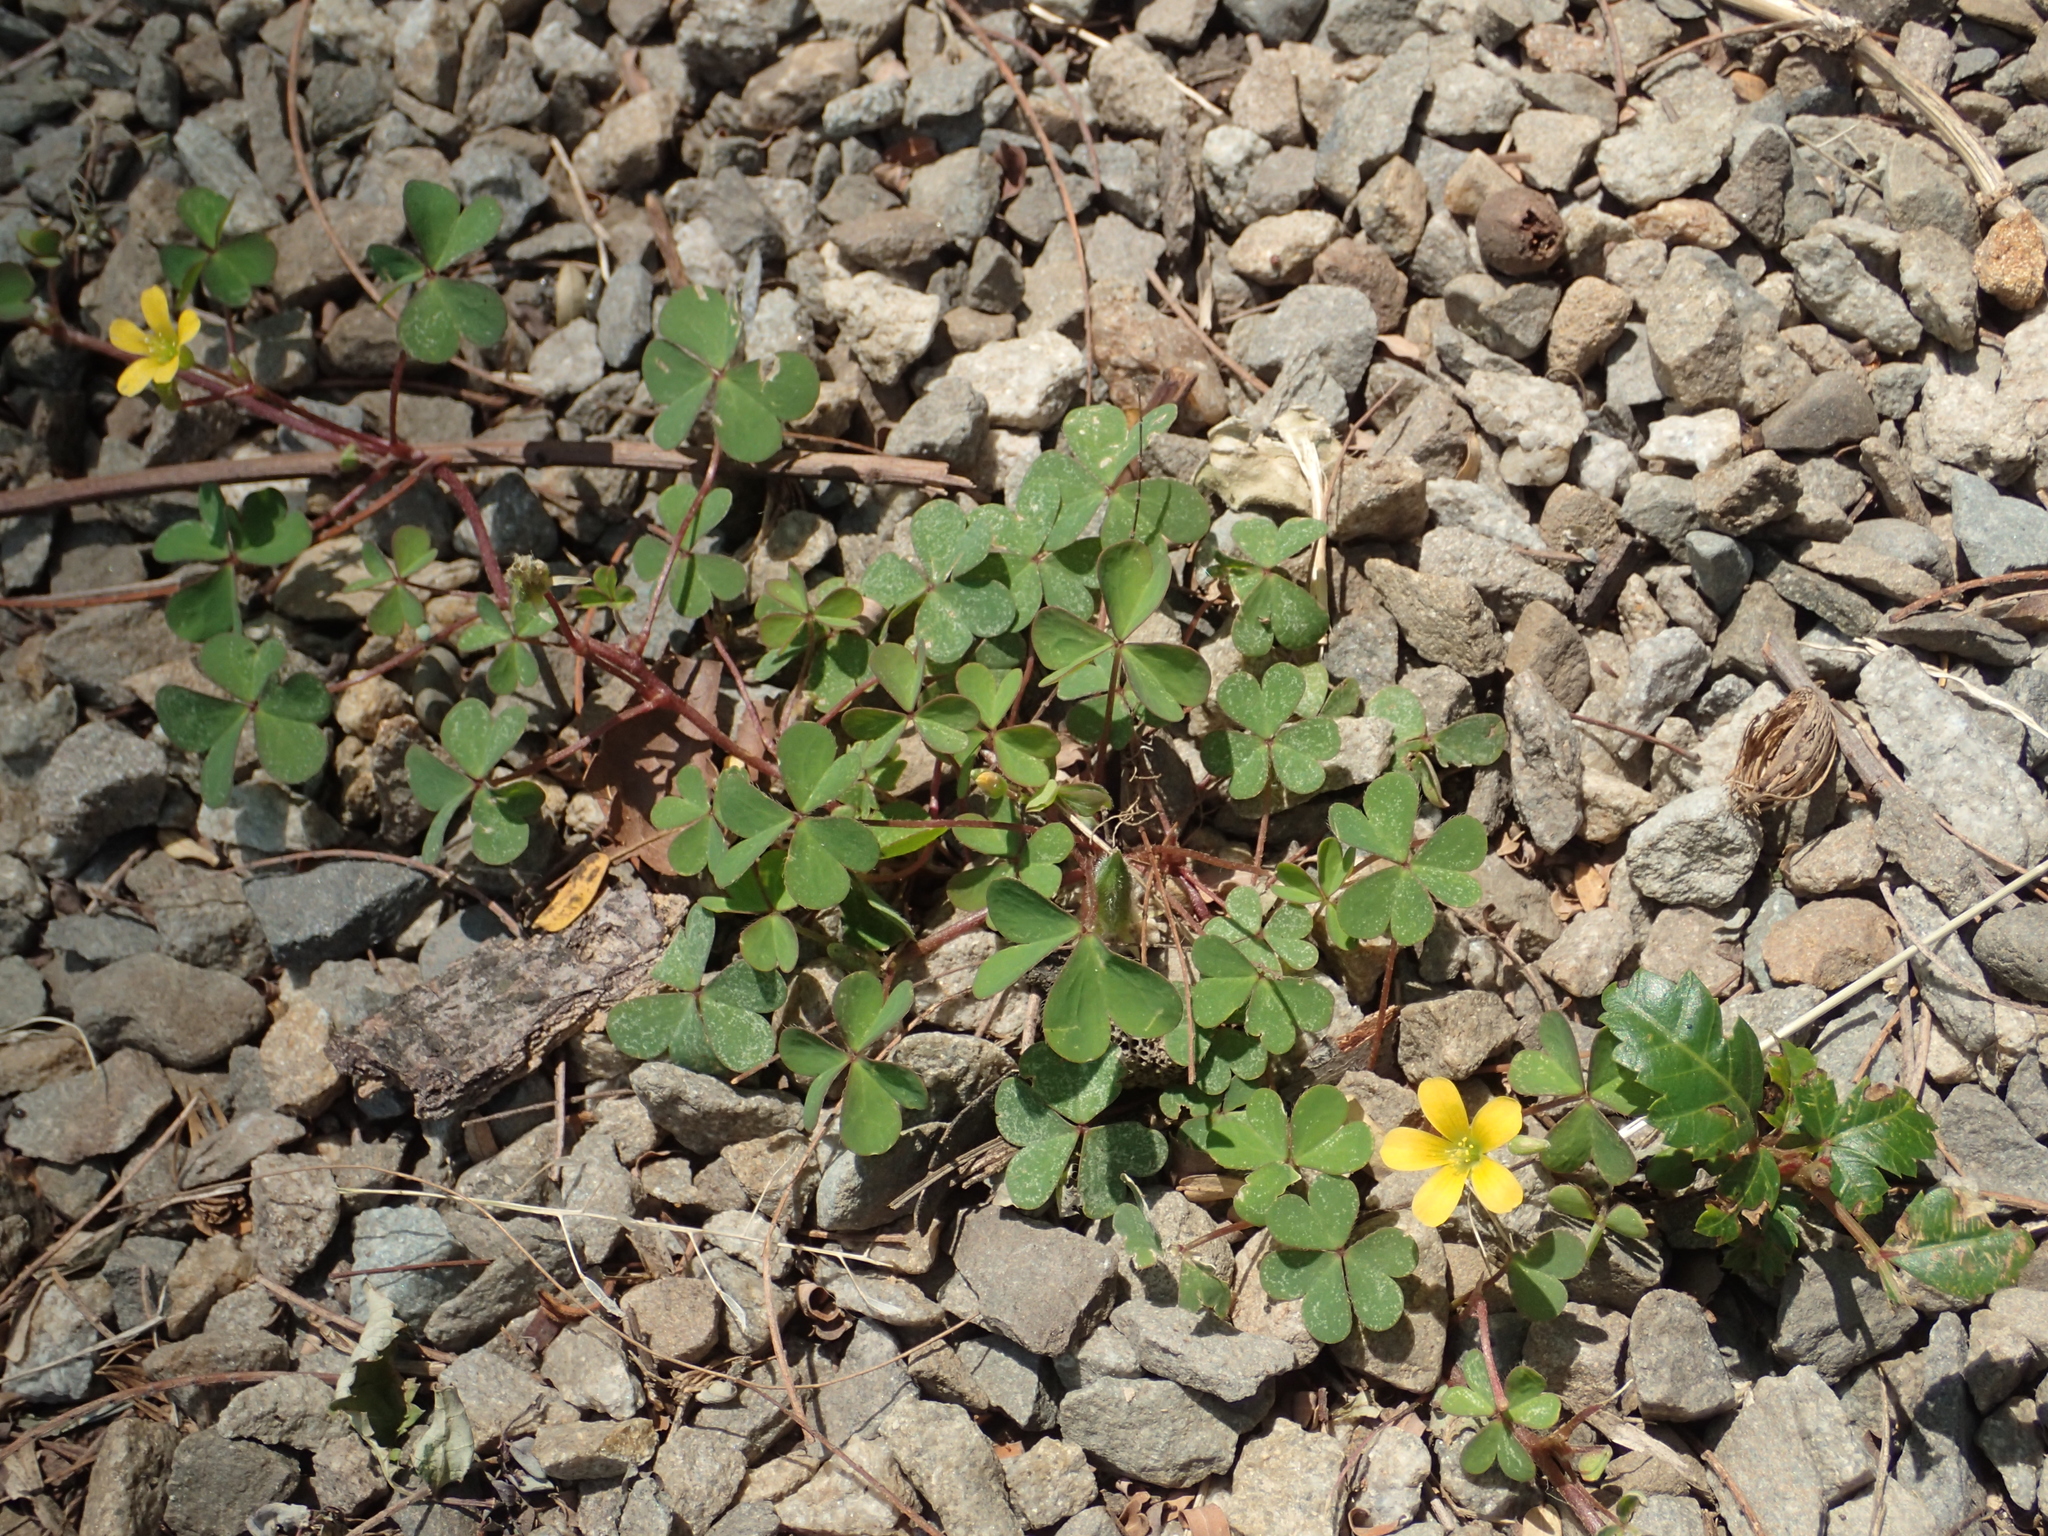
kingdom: Plantae
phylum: Tracheophyta
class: Magnoliopsida
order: Oxalidales
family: Oxalidaceae
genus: Oxalis
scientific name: Oxalis corniculata
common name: Procumbent yellow-sorrel
